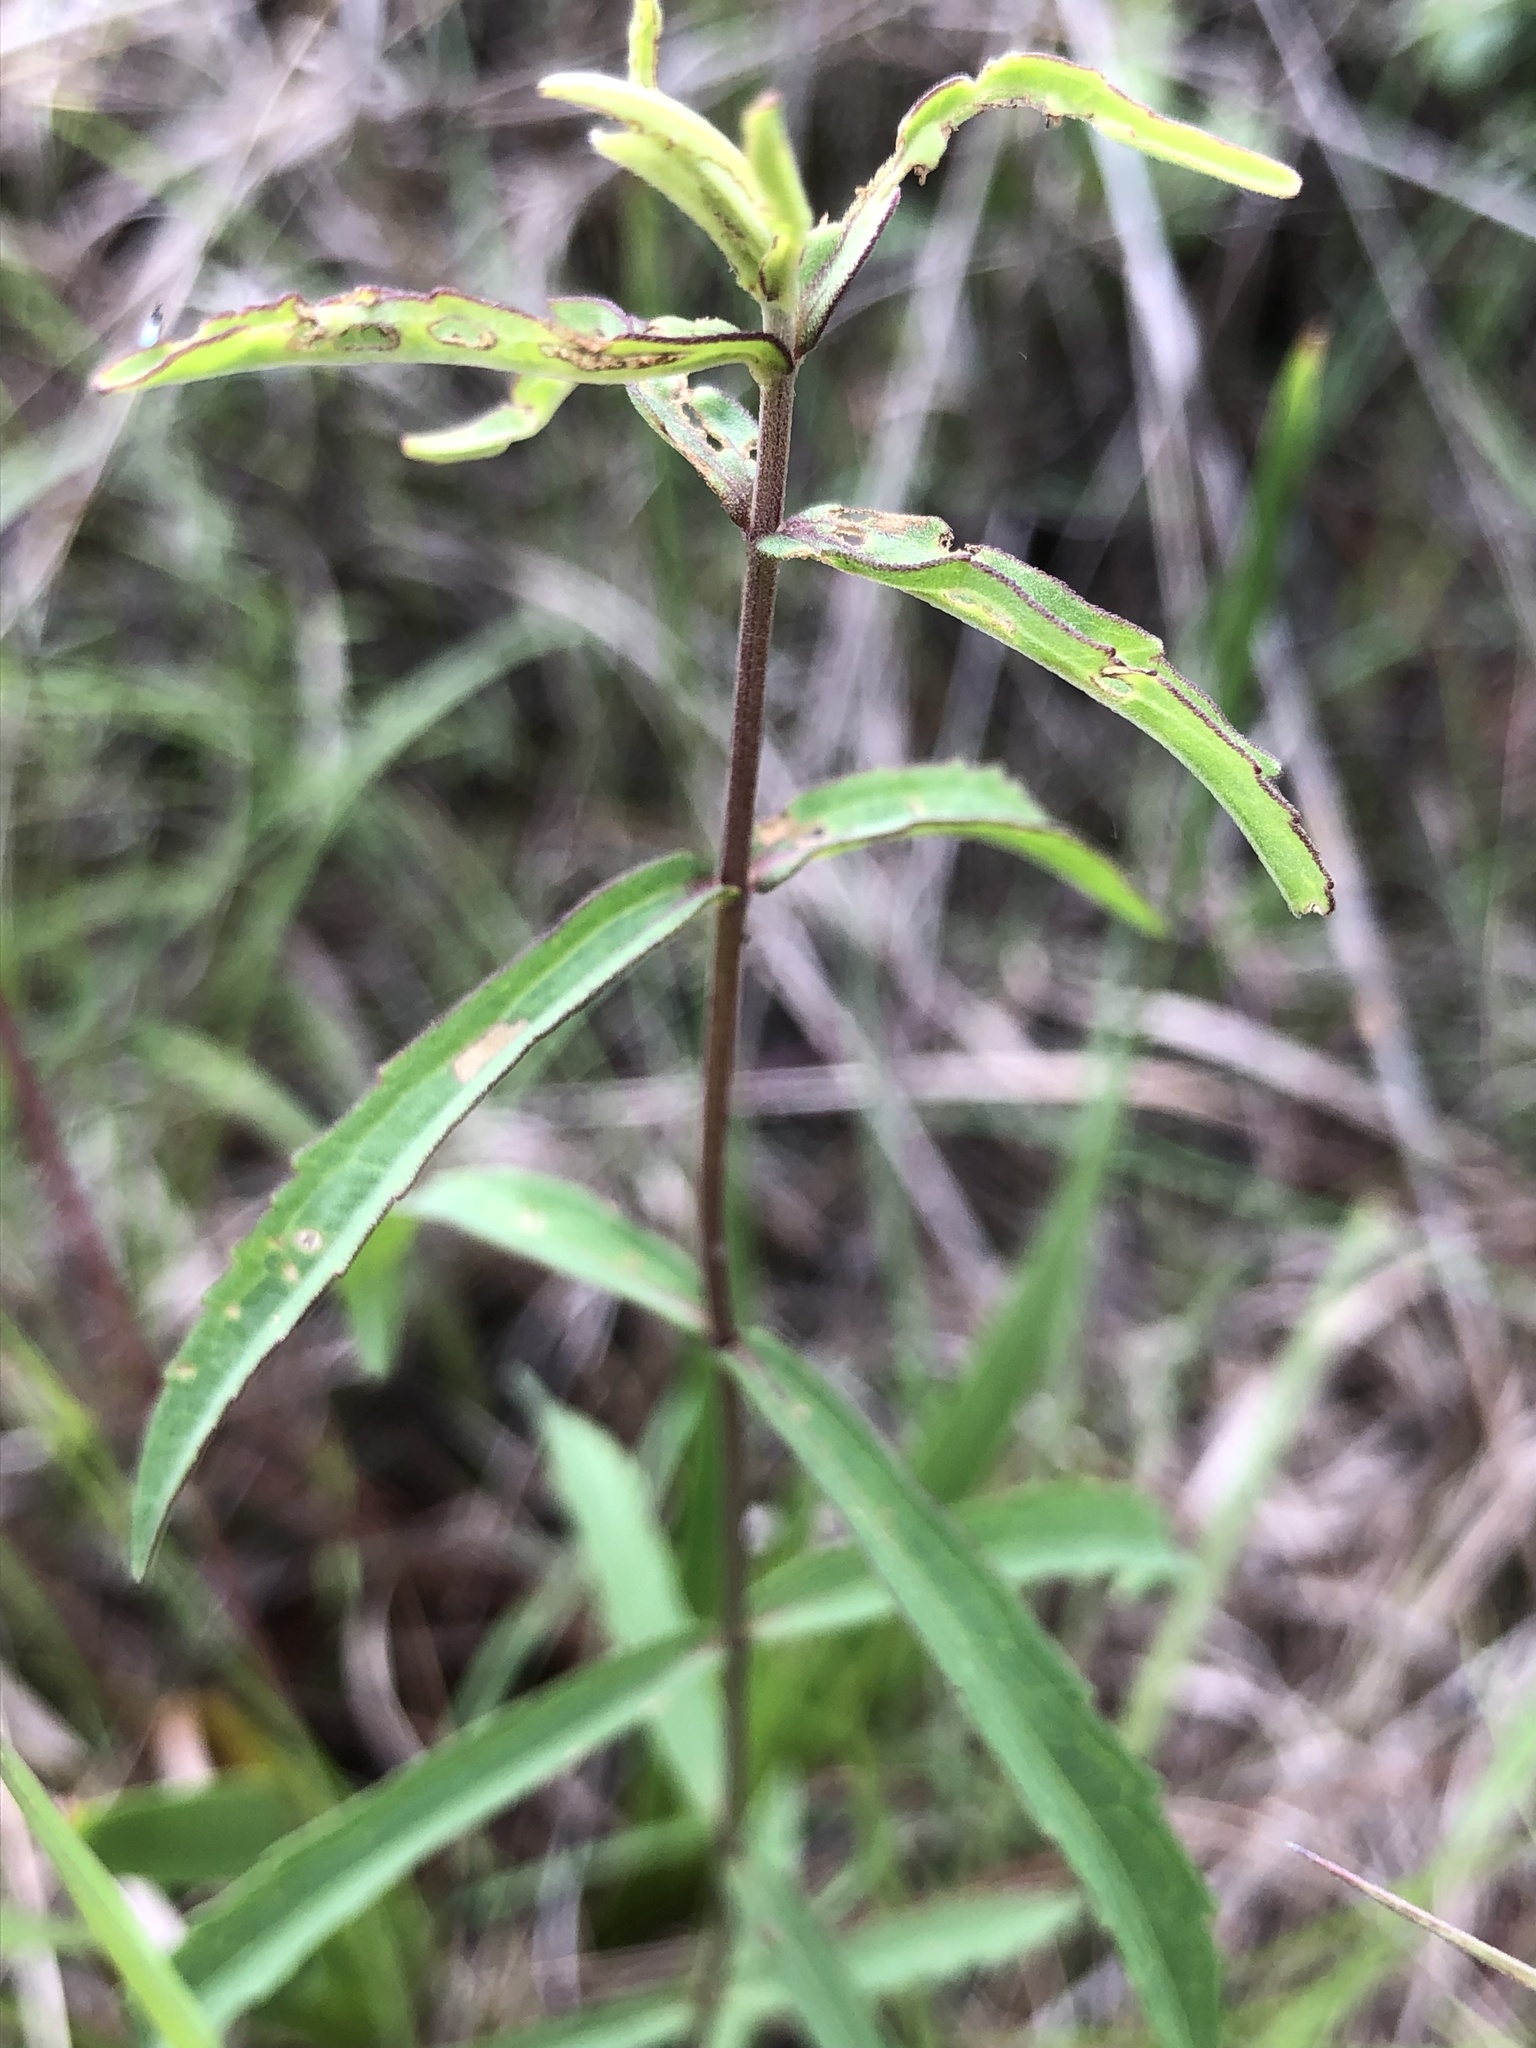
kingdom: Plantae
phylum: Tracheophyta
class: Magnoliopsida
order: Asterales
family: Asteraceae
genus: Eupatorium
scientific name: Eupatorium leucolepis
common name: Justiceweed
